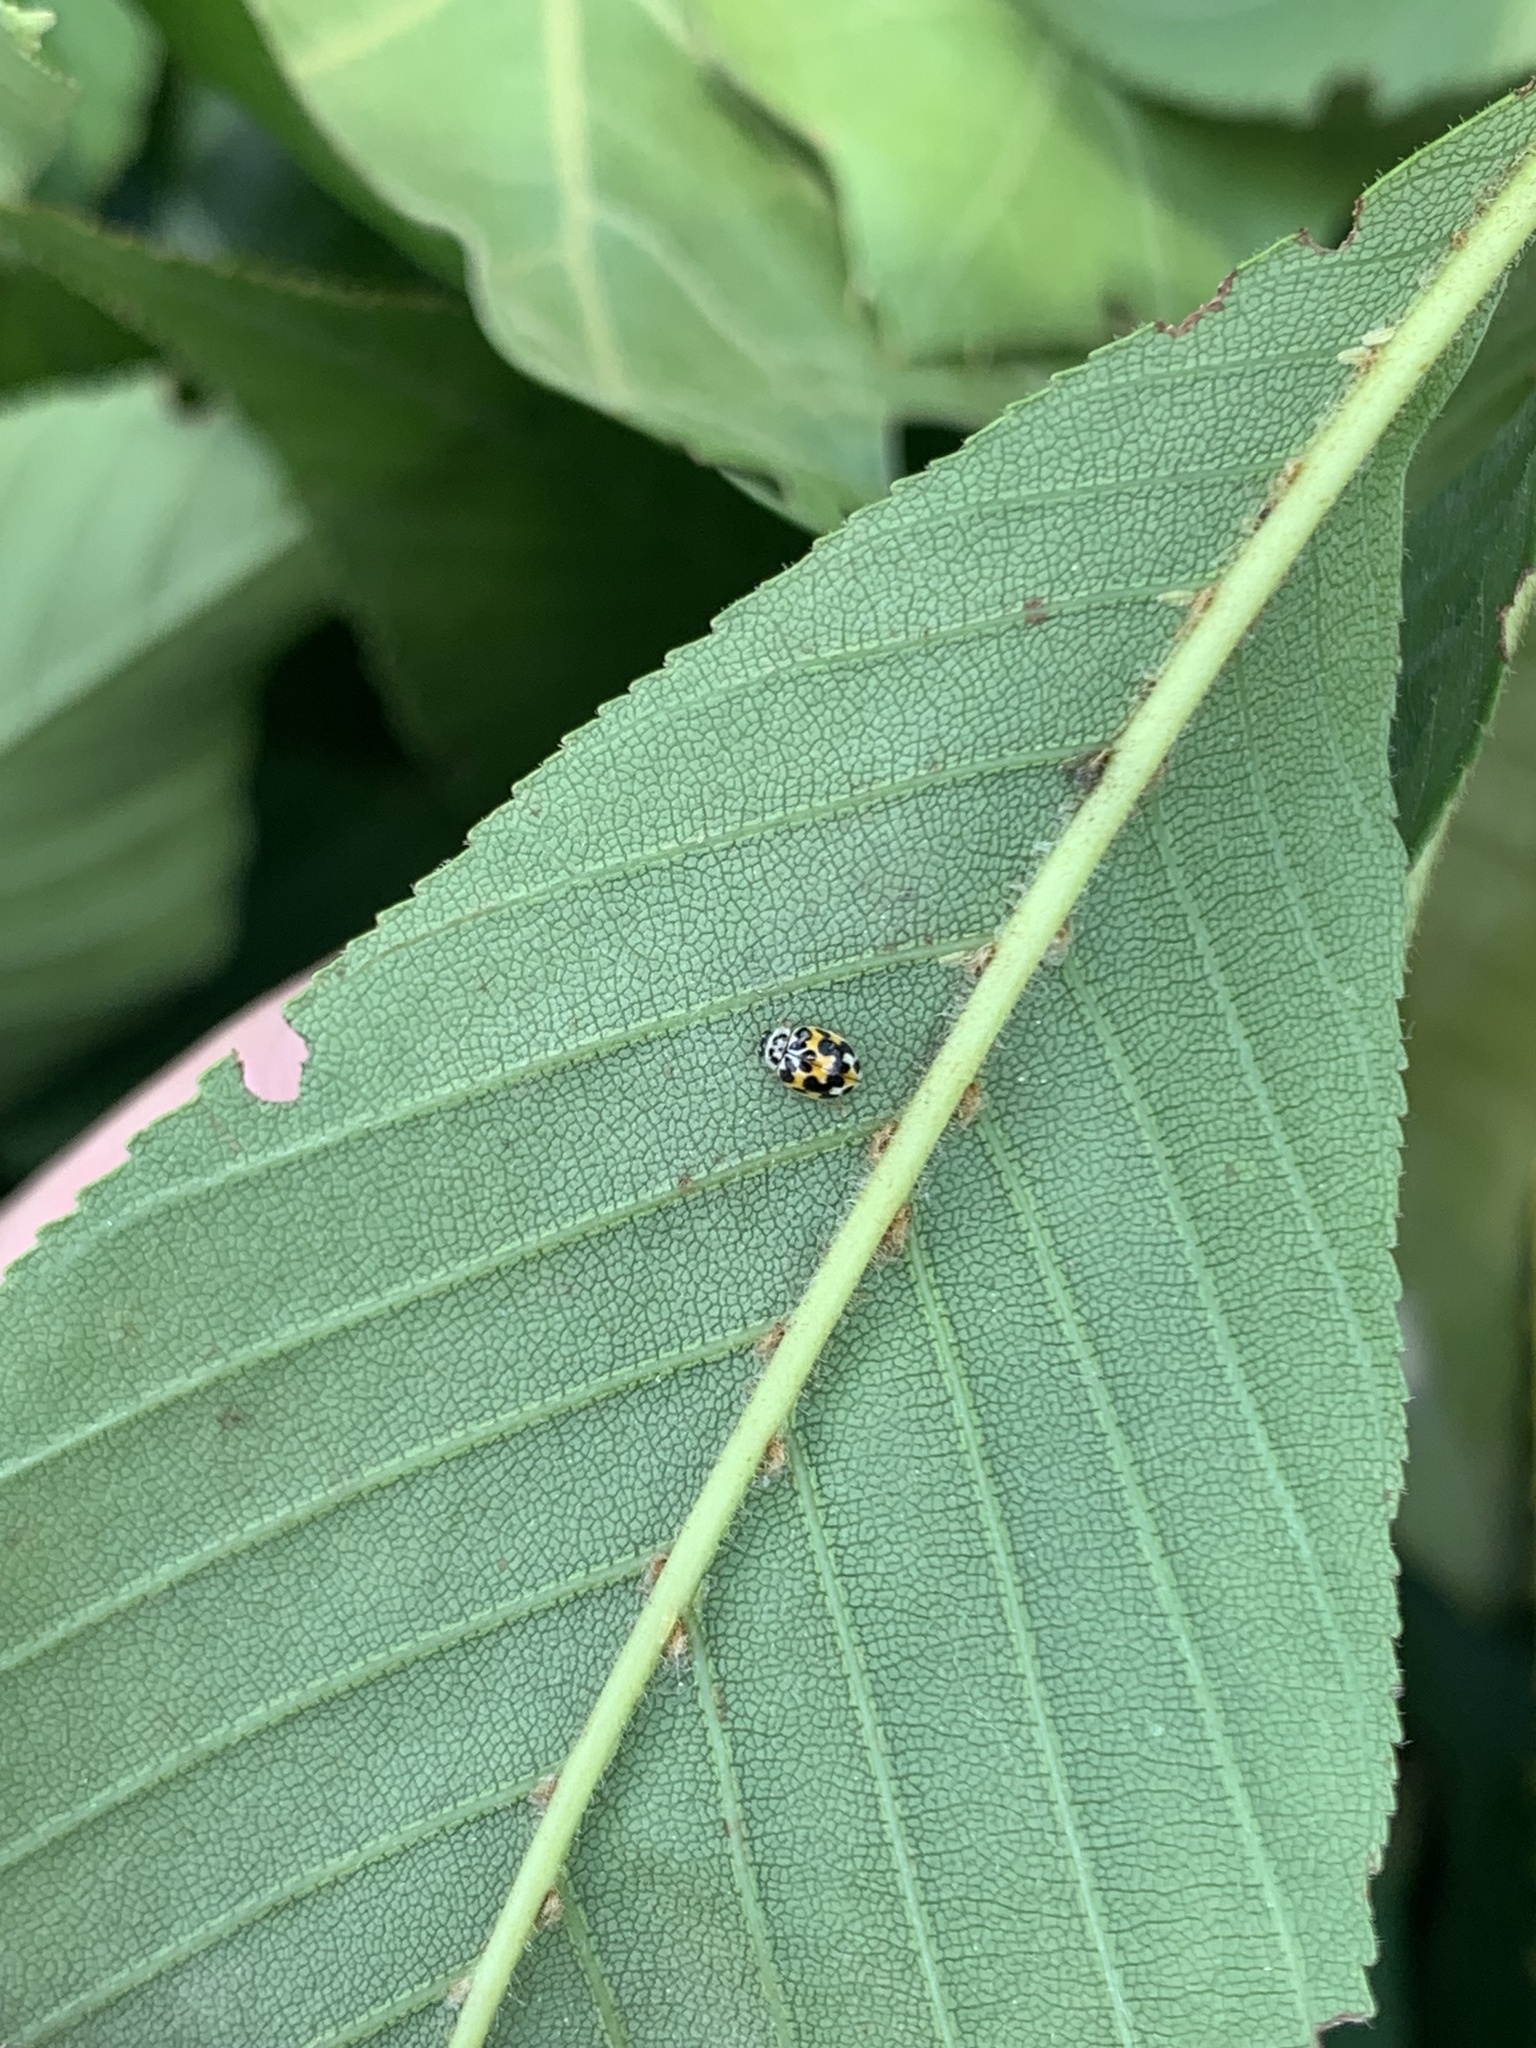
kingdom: Animalia
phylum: Arthropoda
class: Insecta
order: Coleoptera
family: Coccinellidae
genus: Psyllobora
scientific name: Psyllobora vigintimaculata
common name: Ladybird beetle
